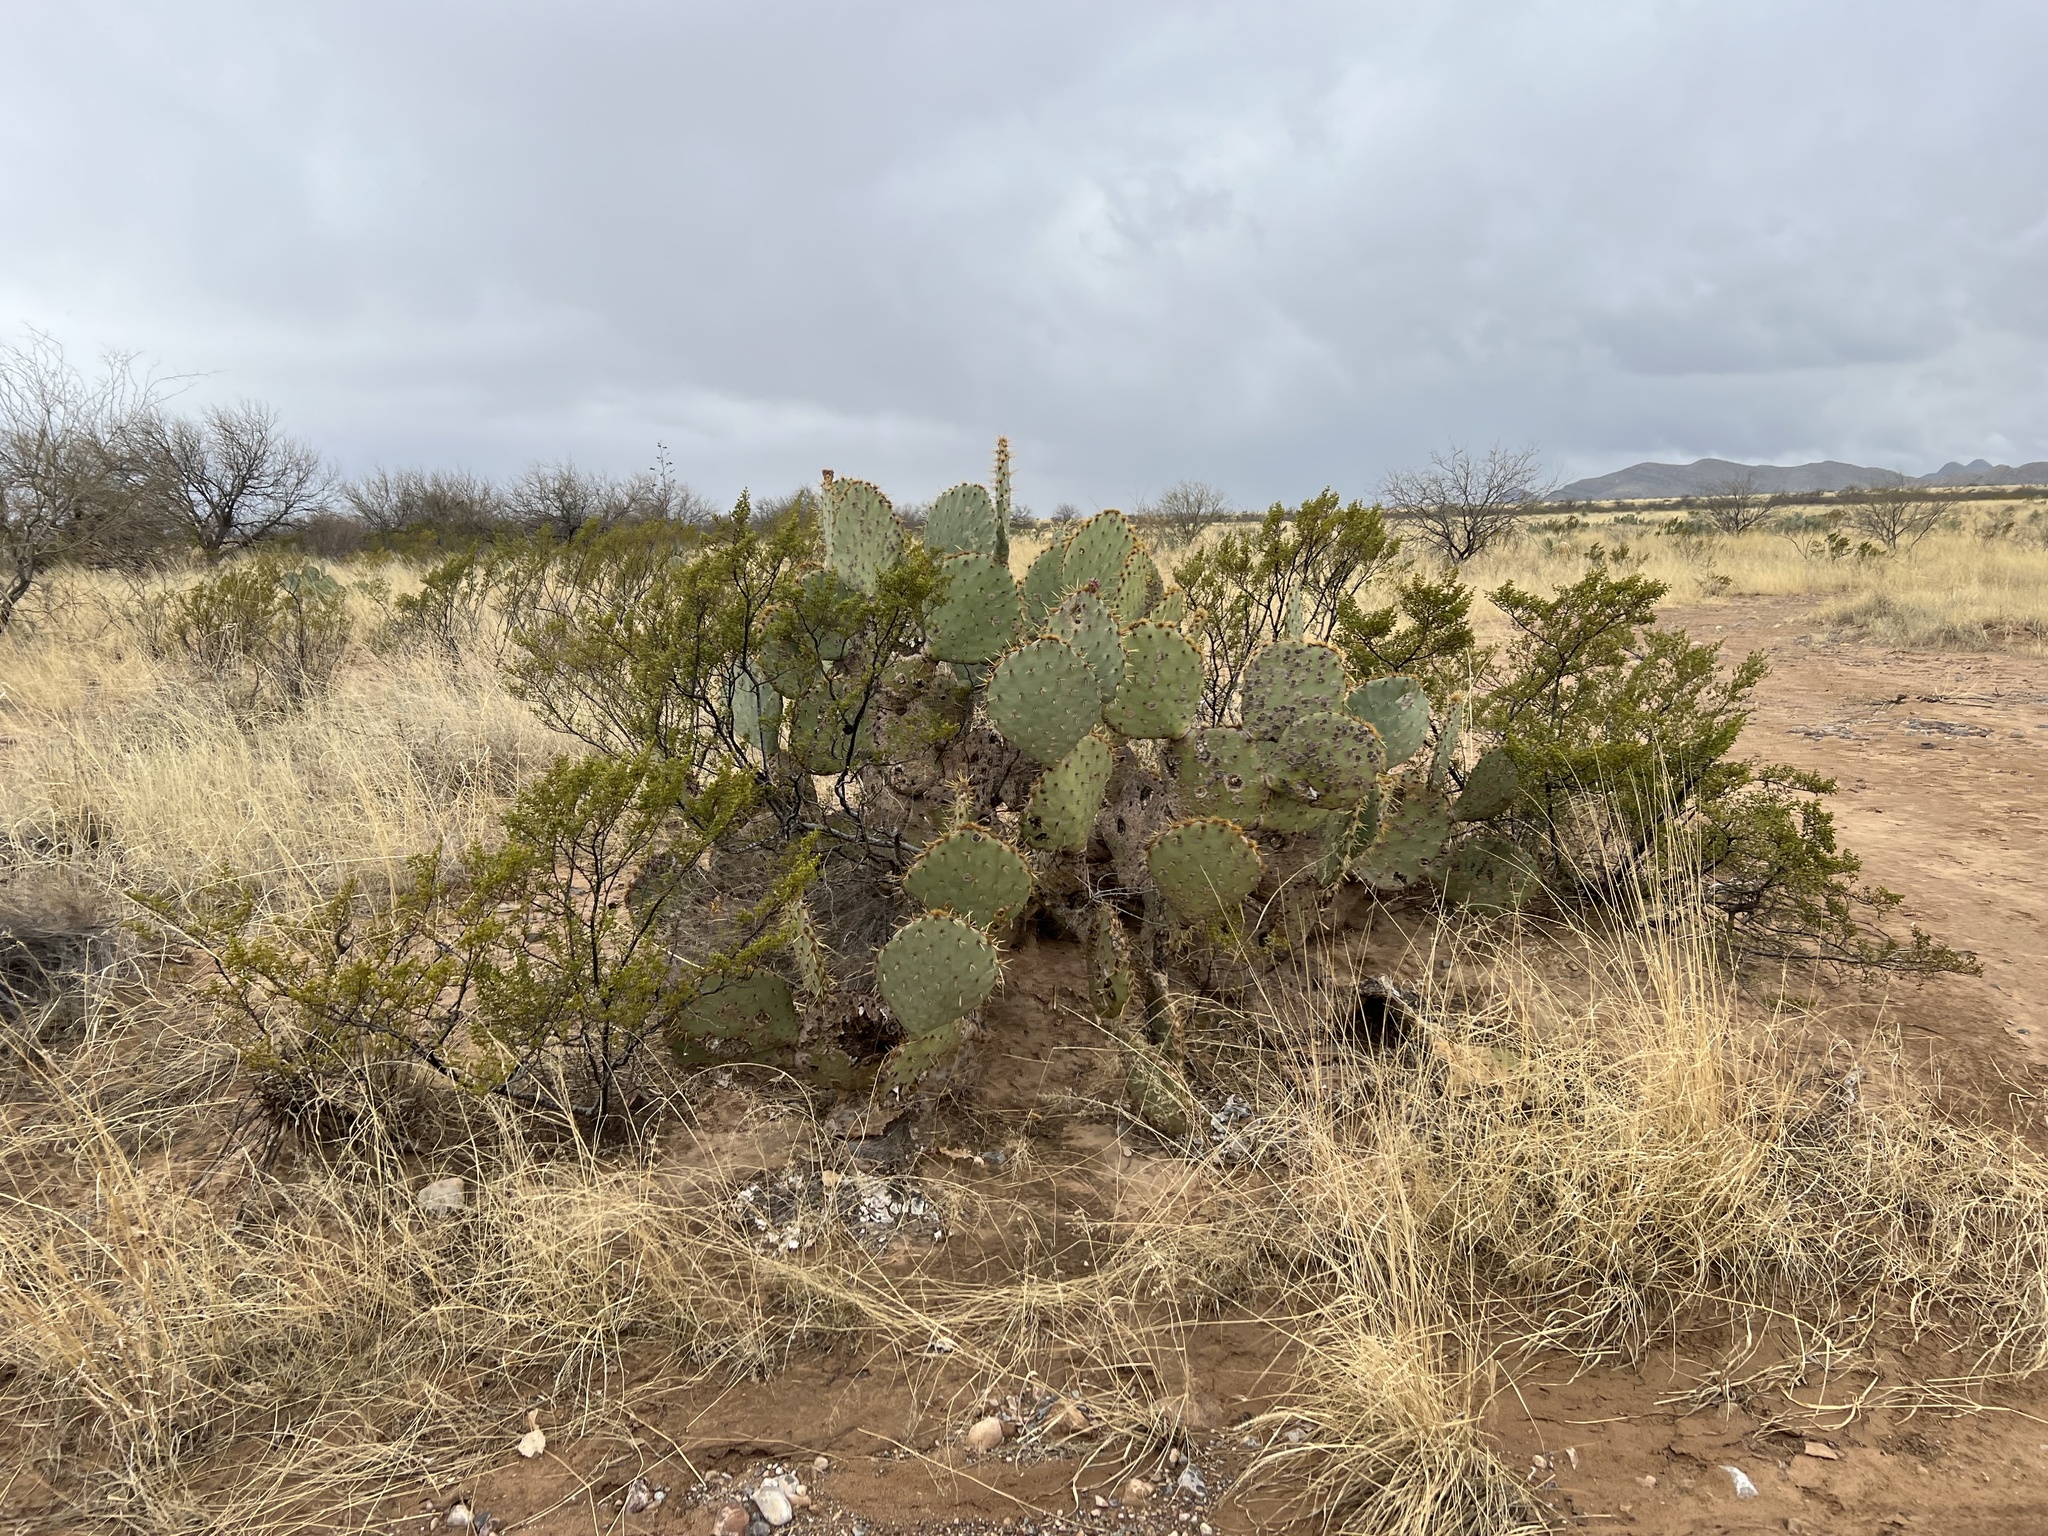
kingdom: Plantae
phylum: Tracheophyta
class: Magnoliopsida
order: Caryophyllales
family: Cactaceae
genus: Opuntia
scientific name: Opuntia engelmannii
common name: Cactus-apple
